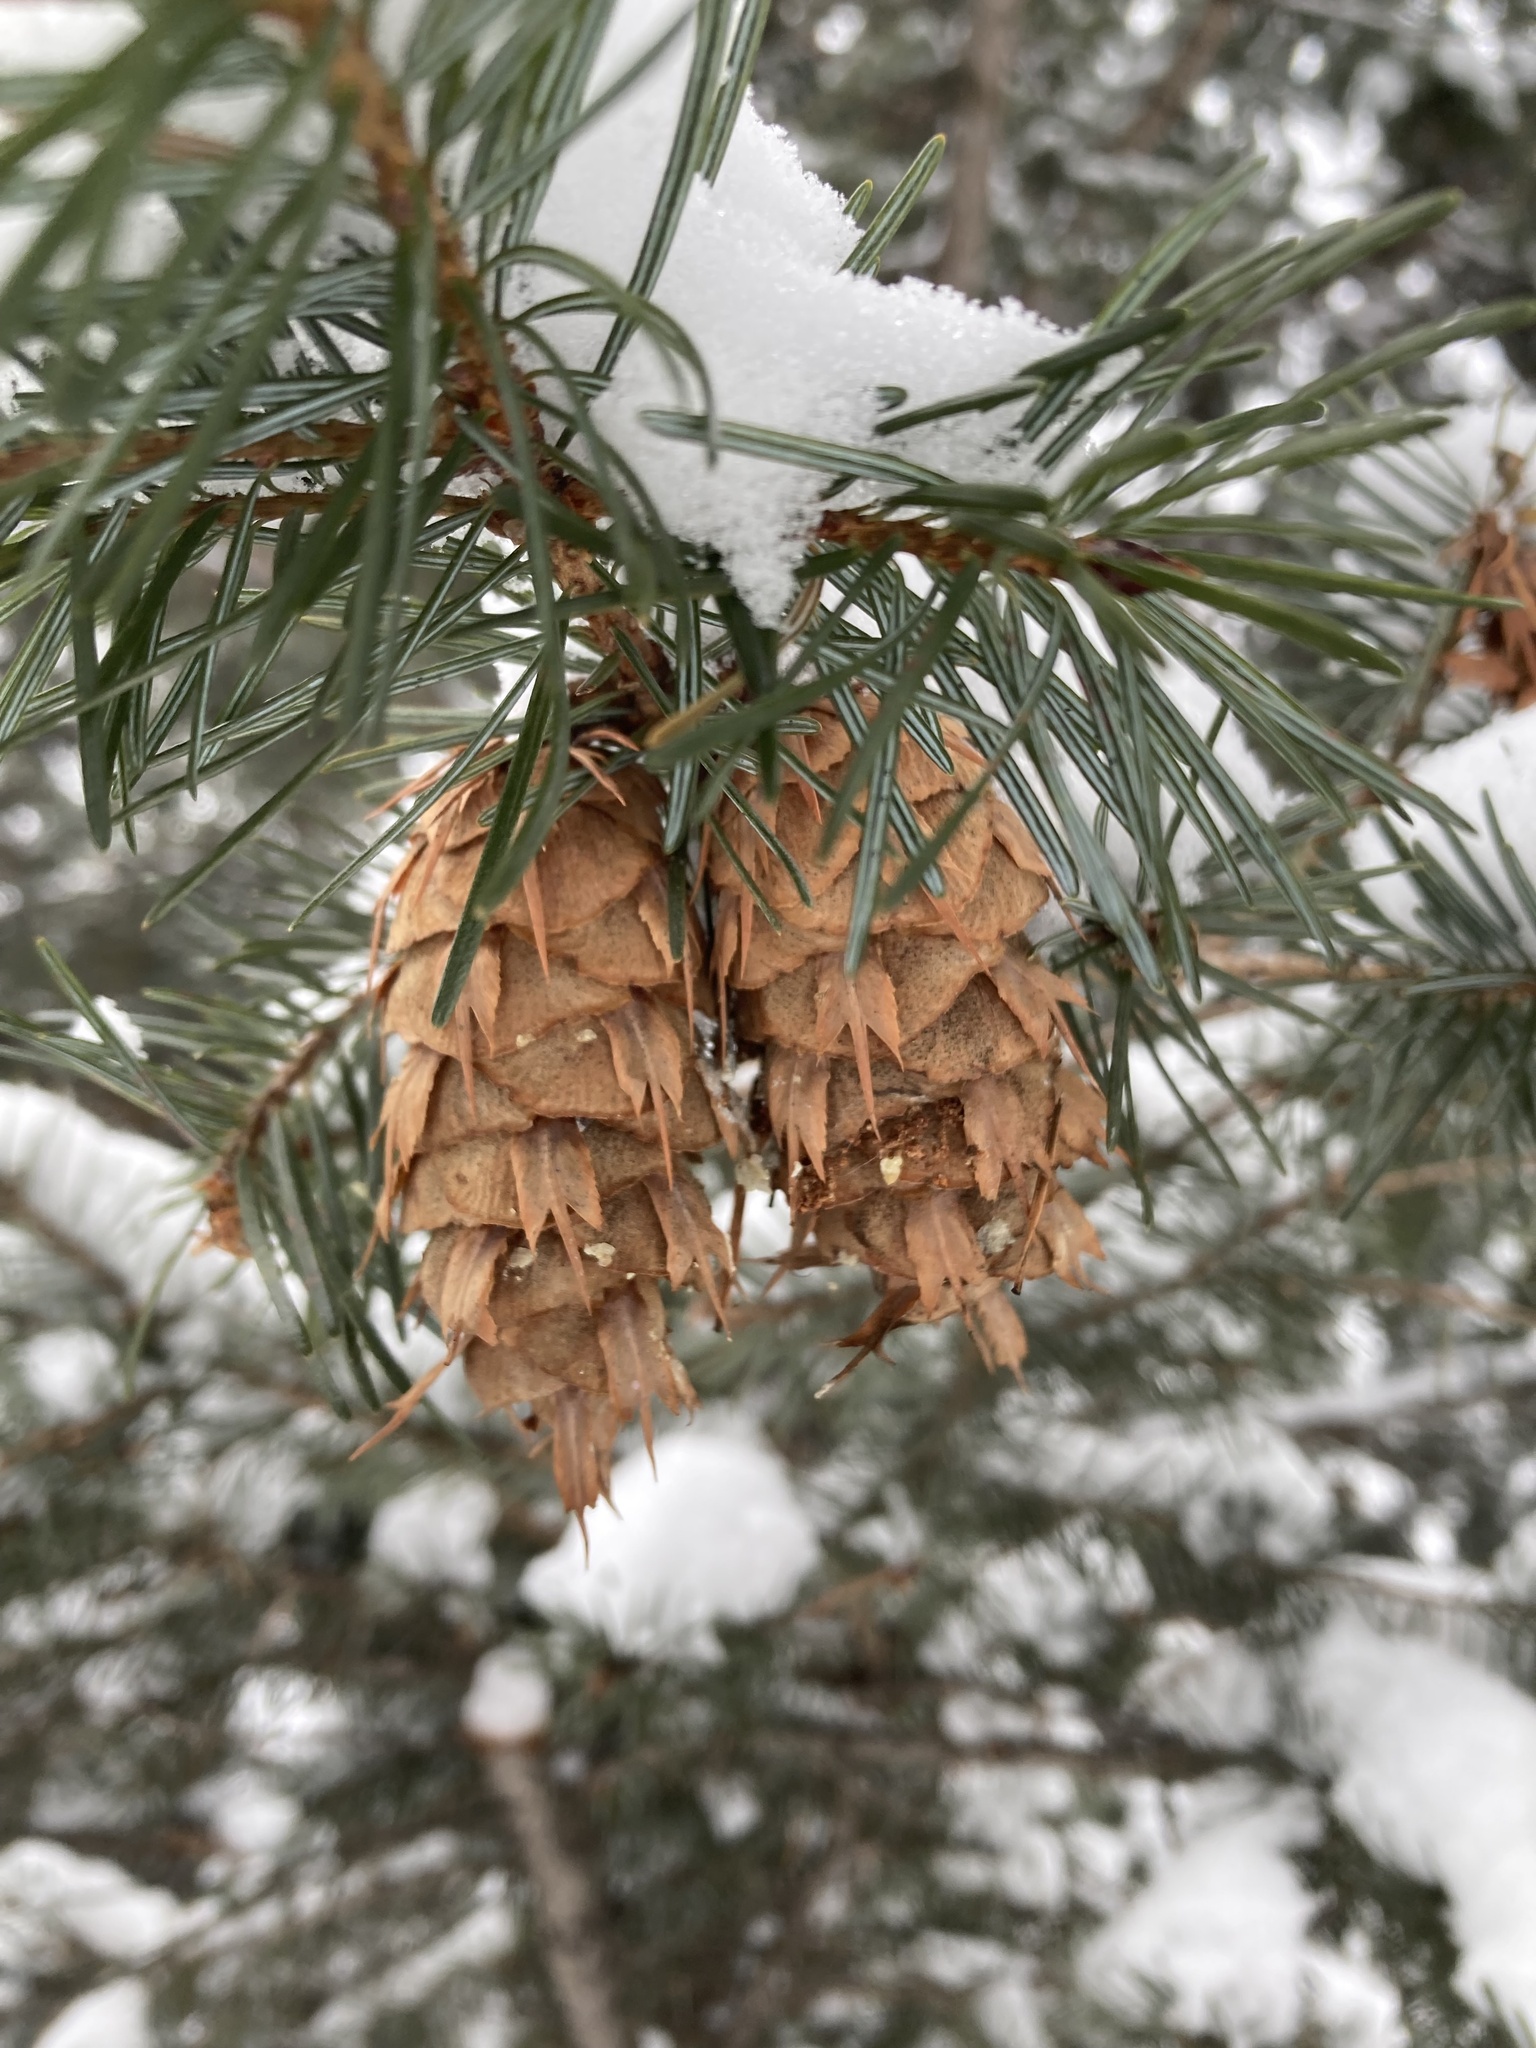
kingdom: Plantae
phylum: Tracheophyta
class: Pinopsida
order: Pinales
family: Pinaceae
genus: Pseudotsuga
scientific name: Pseudotsuga menziesii
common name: Douglas fir
